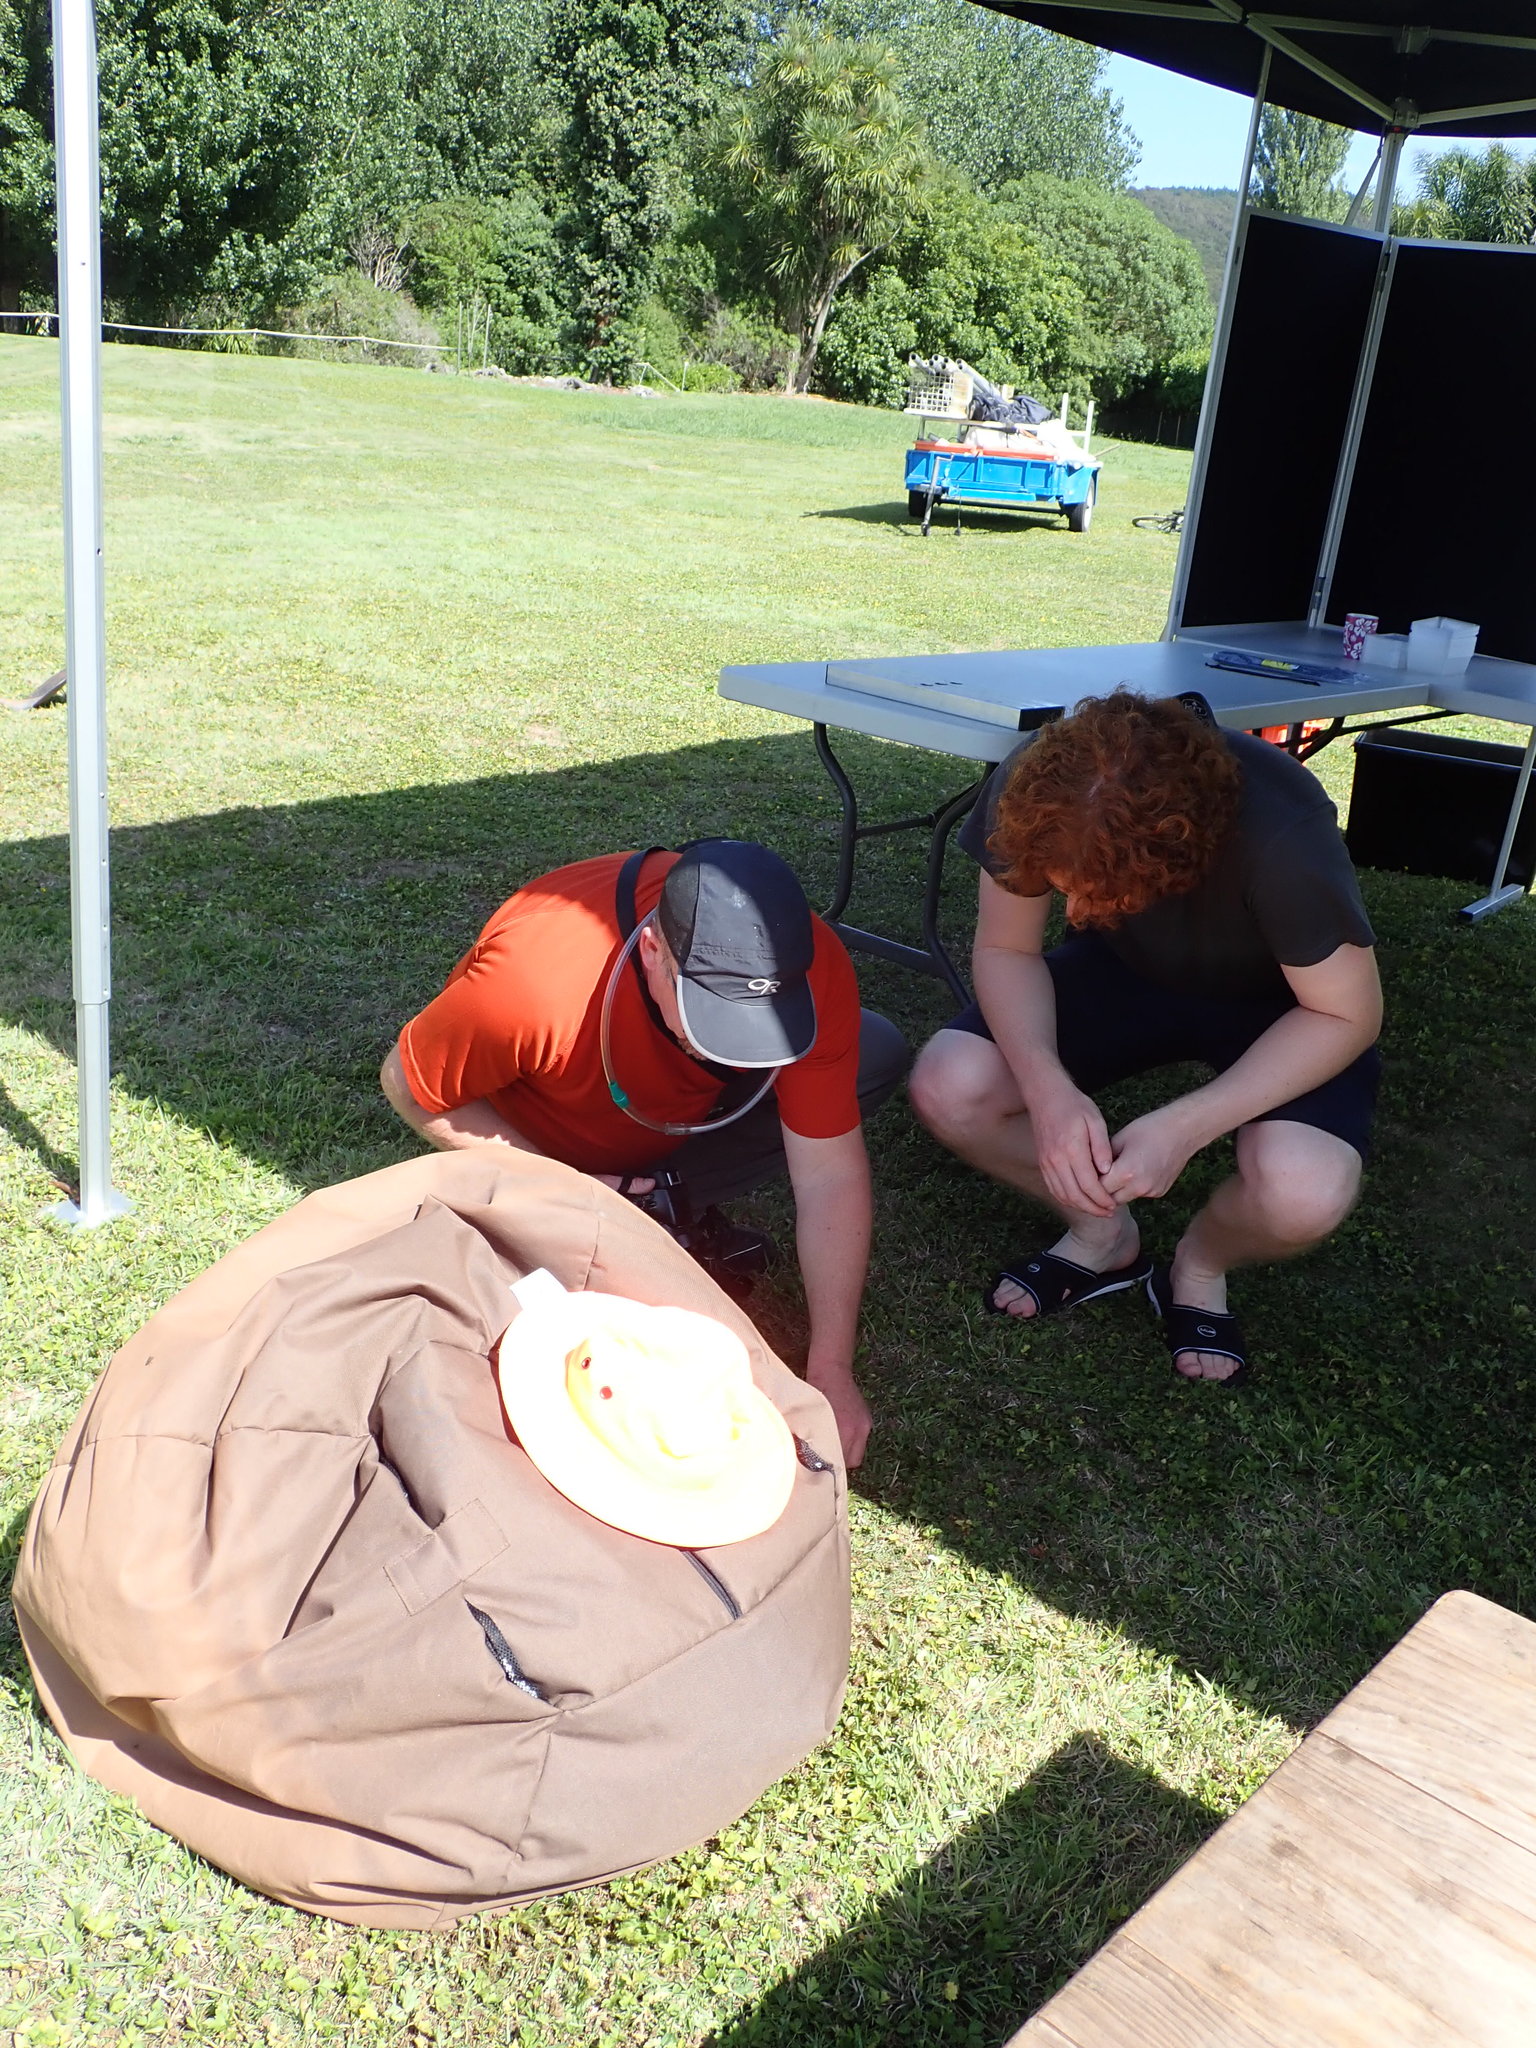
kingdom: Animalia
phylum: Arthropoda
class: Insecta
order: Coleoptera
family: Curculionidae
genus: Naupactus
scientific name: Naupactus leucoloma
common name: Whitefringed beetle
